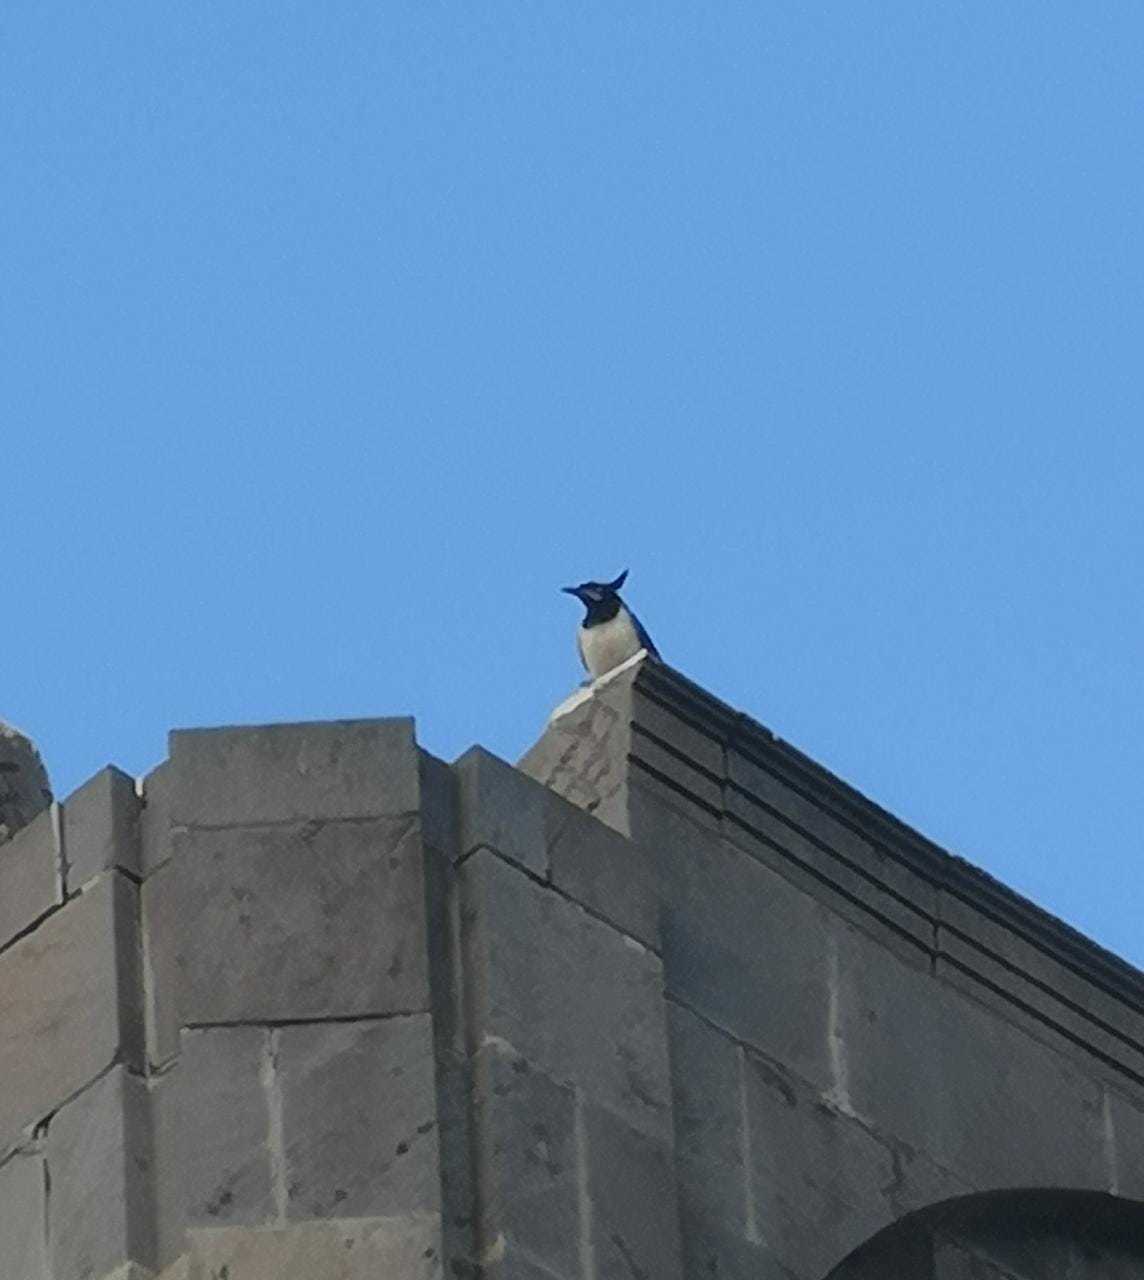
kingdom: Animalia
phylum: Chordata
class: Aves
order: Passeriformes
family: Corvidae
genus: Calocitta
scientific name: Calocitta colliei
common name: Black-throated magpie-jay
